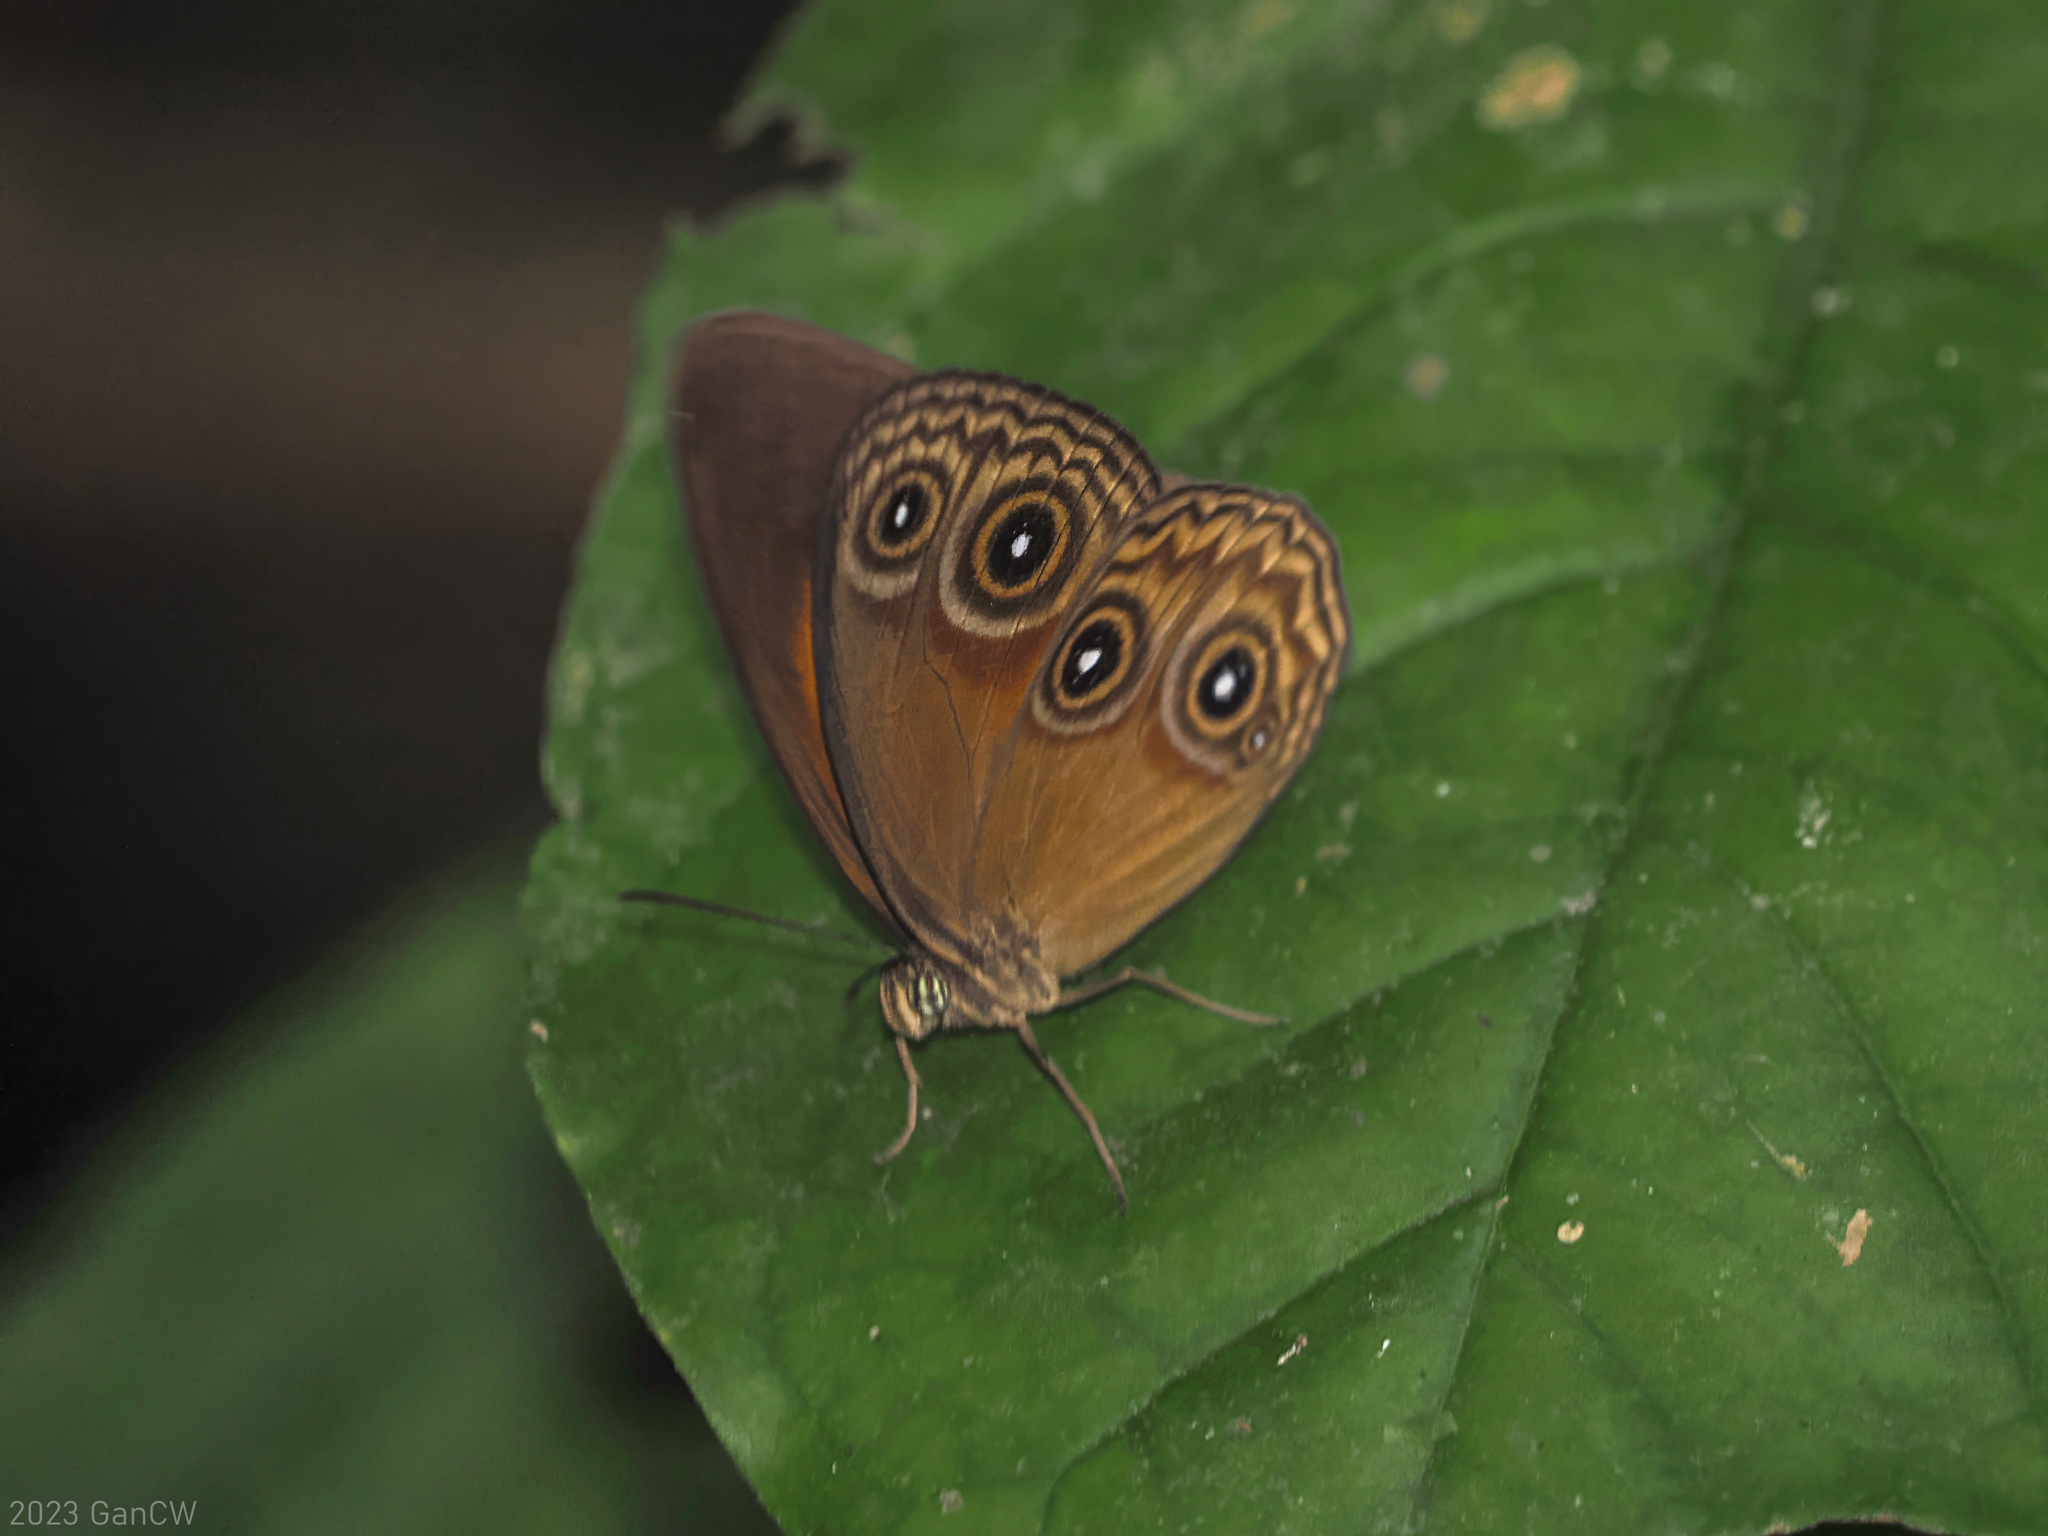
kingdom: Animalia
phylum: Arthropoda
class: Insecta
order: Lepidoptera
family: Nymphalidae
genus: Mycalesis
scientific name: Mycalesis
